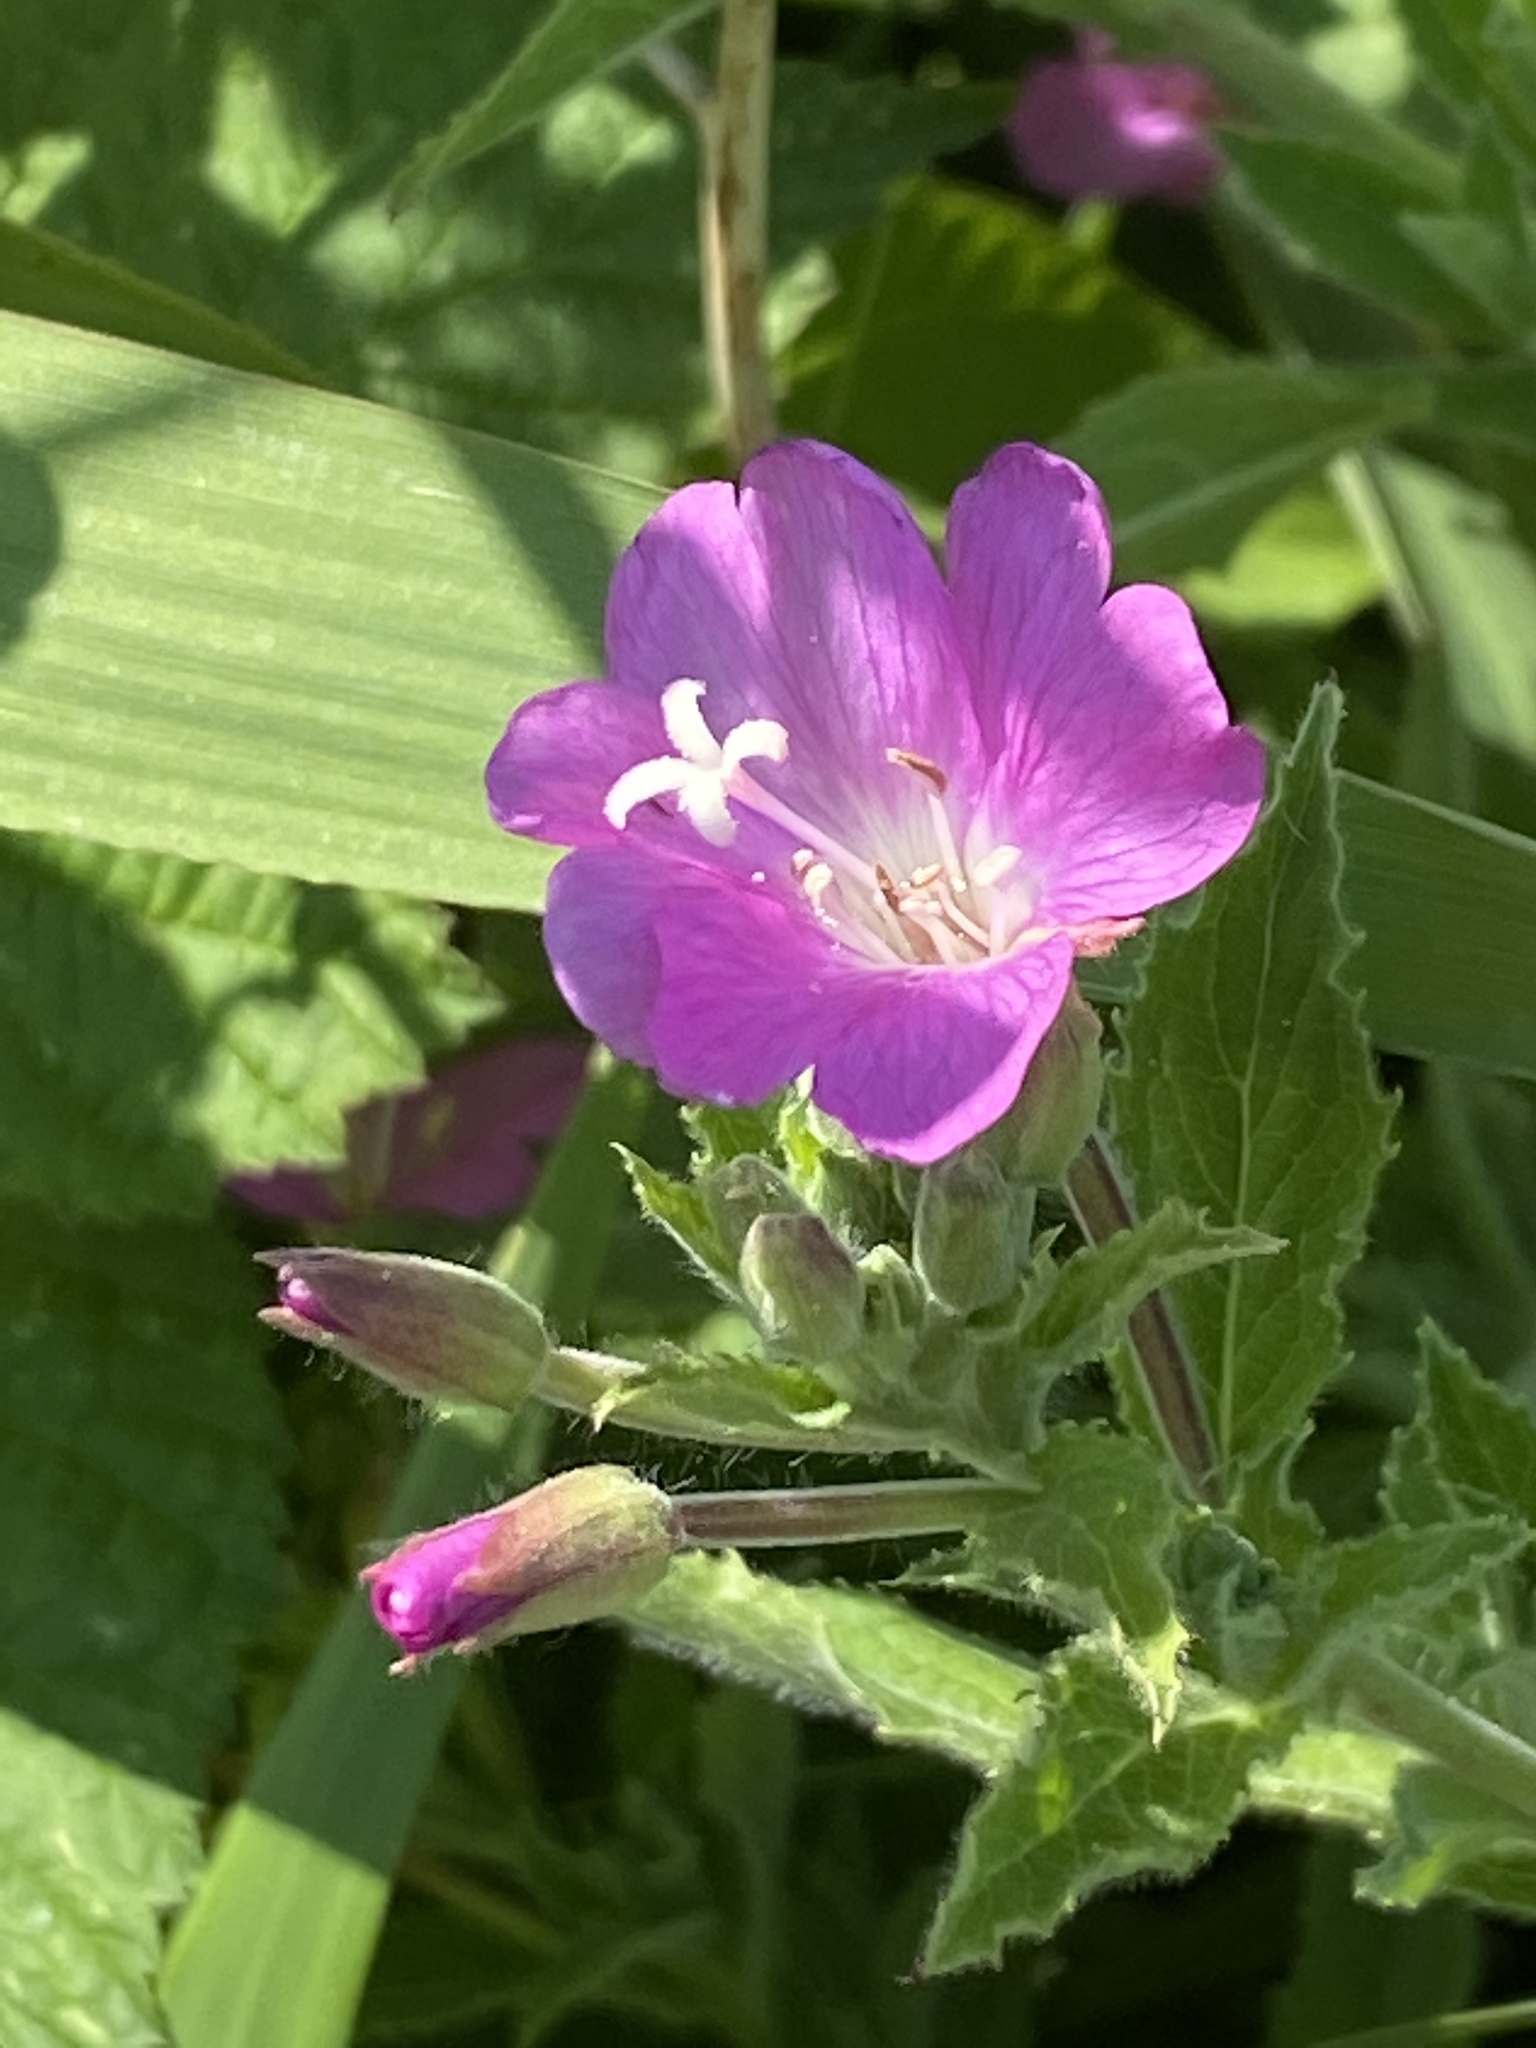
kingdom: Plantae
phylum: Tracheophyta
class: Magnoliopsida
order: Myrtales
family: Onagraceae
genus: Epilobium
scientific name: Epilobium hirsutum
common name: Great willowherb
